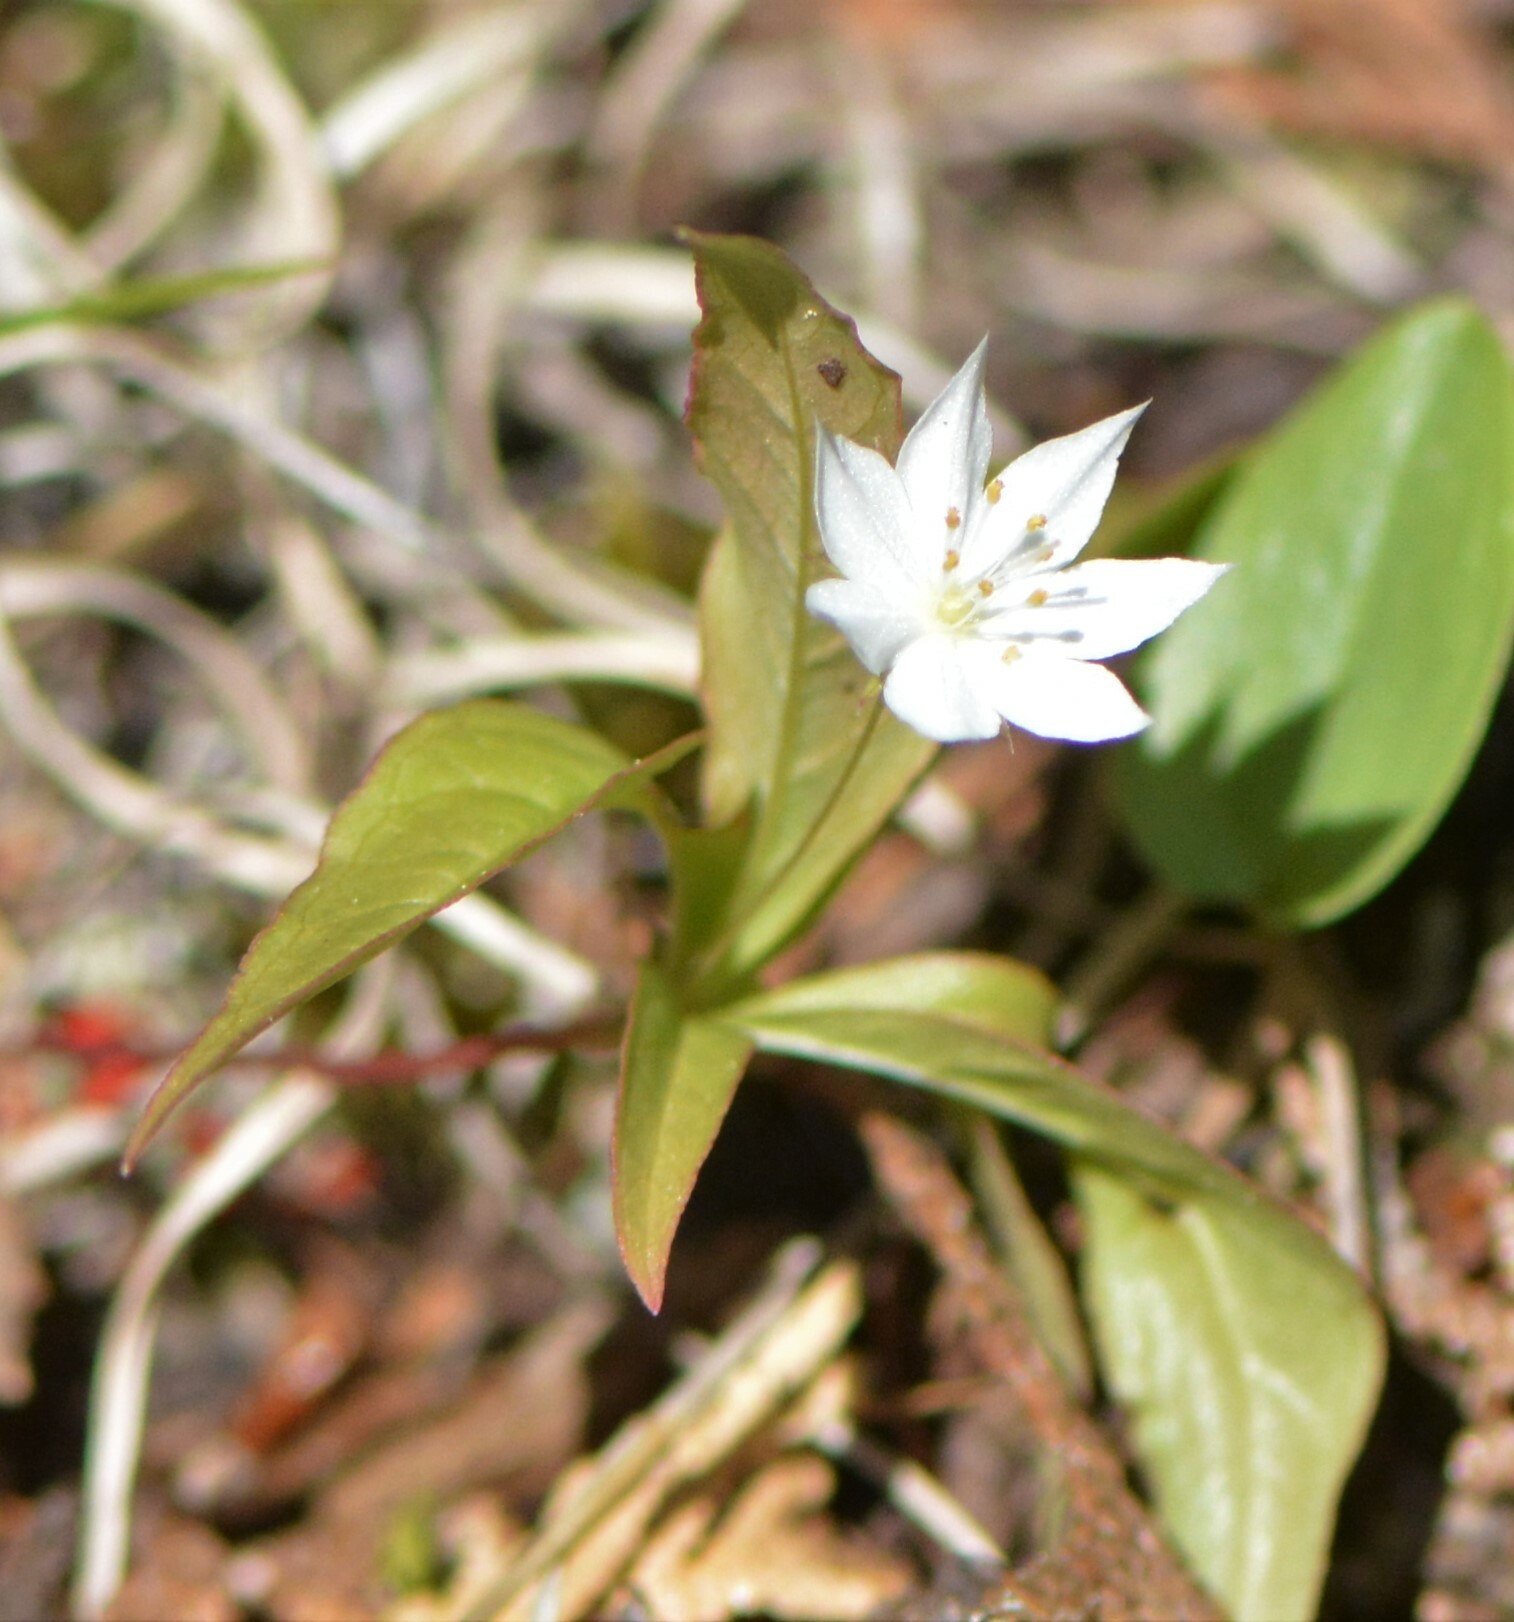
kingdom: Plantae
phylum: Tracheophyta
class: Magnoliopsida
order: Ericales
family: Primulaceae
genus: Lysimachia
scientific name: Lysimachia borealis
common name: American starflower
